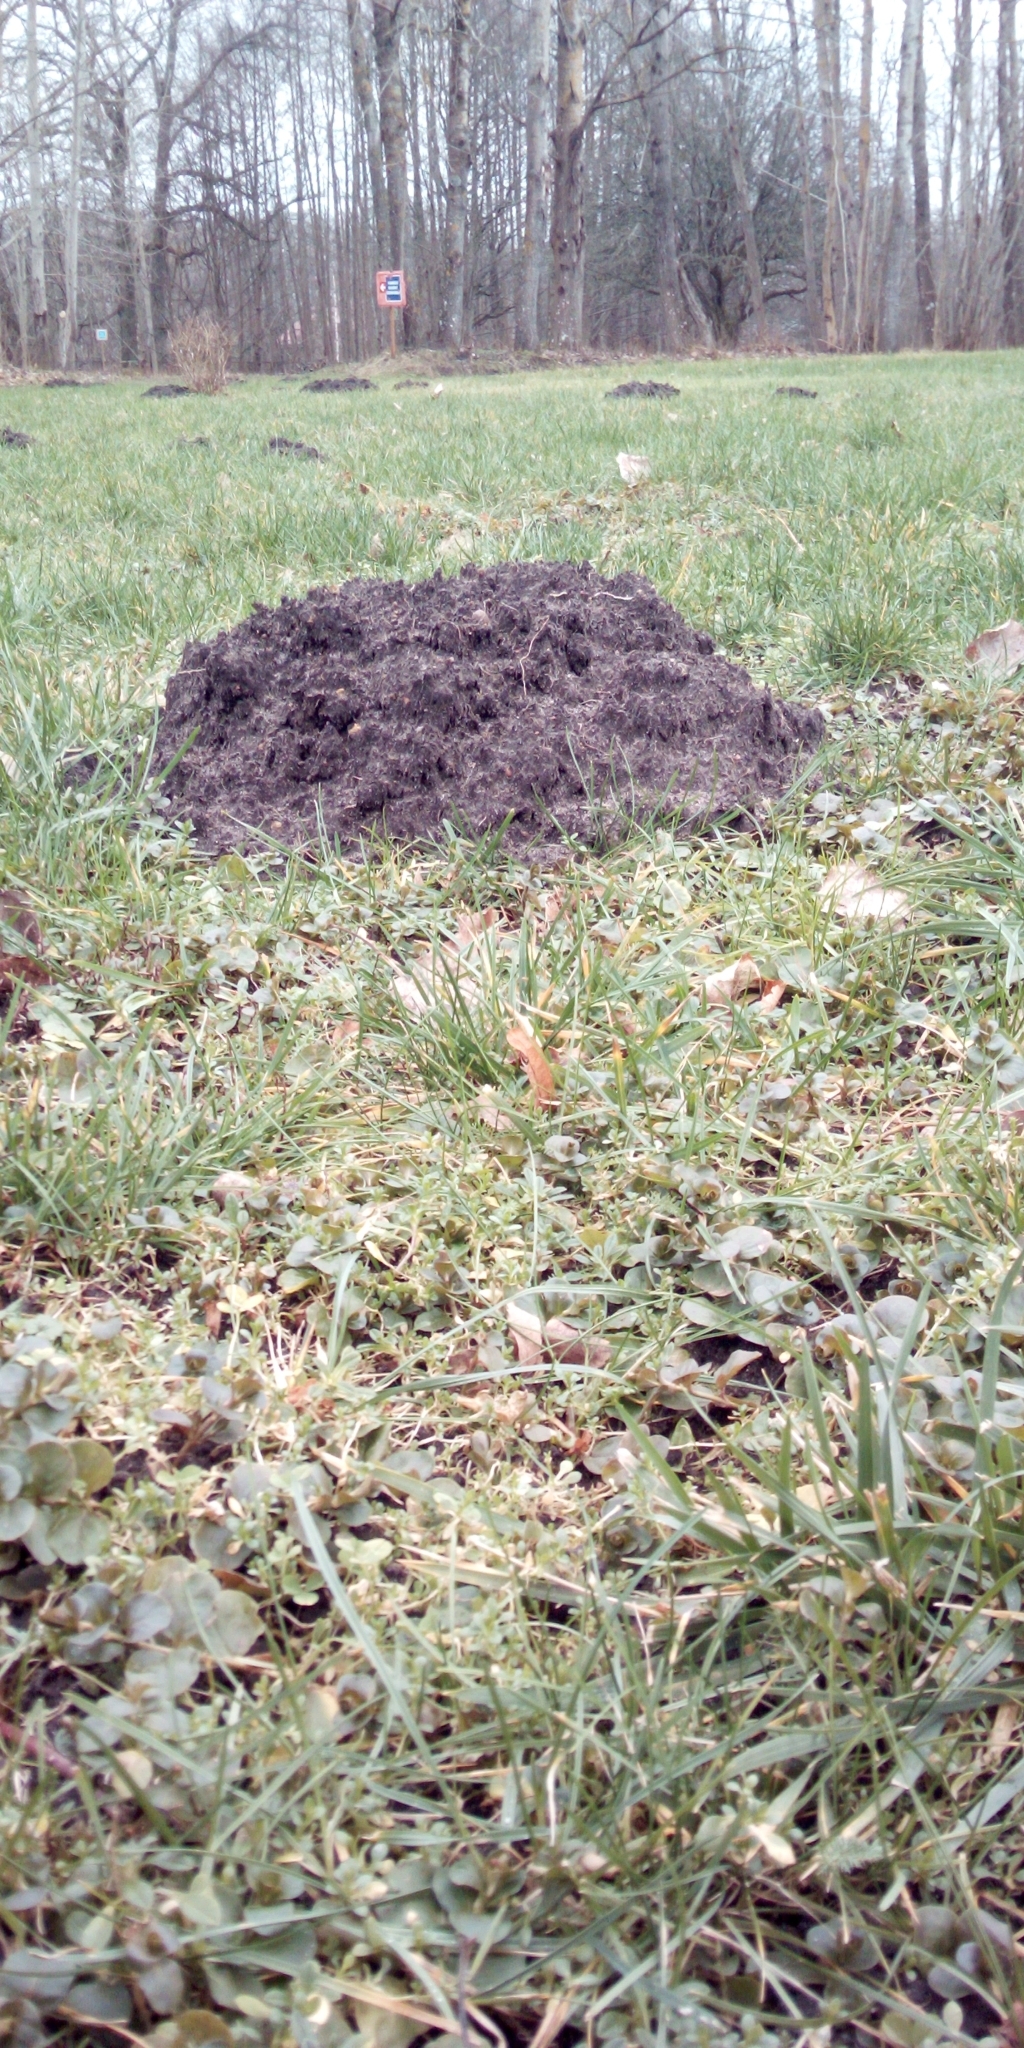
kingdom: Animalia
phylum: Chordata
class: Mammalia
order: Soricomorpha
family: Talpidae
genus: Talpa
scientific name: Talpa europaea
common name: European mole
